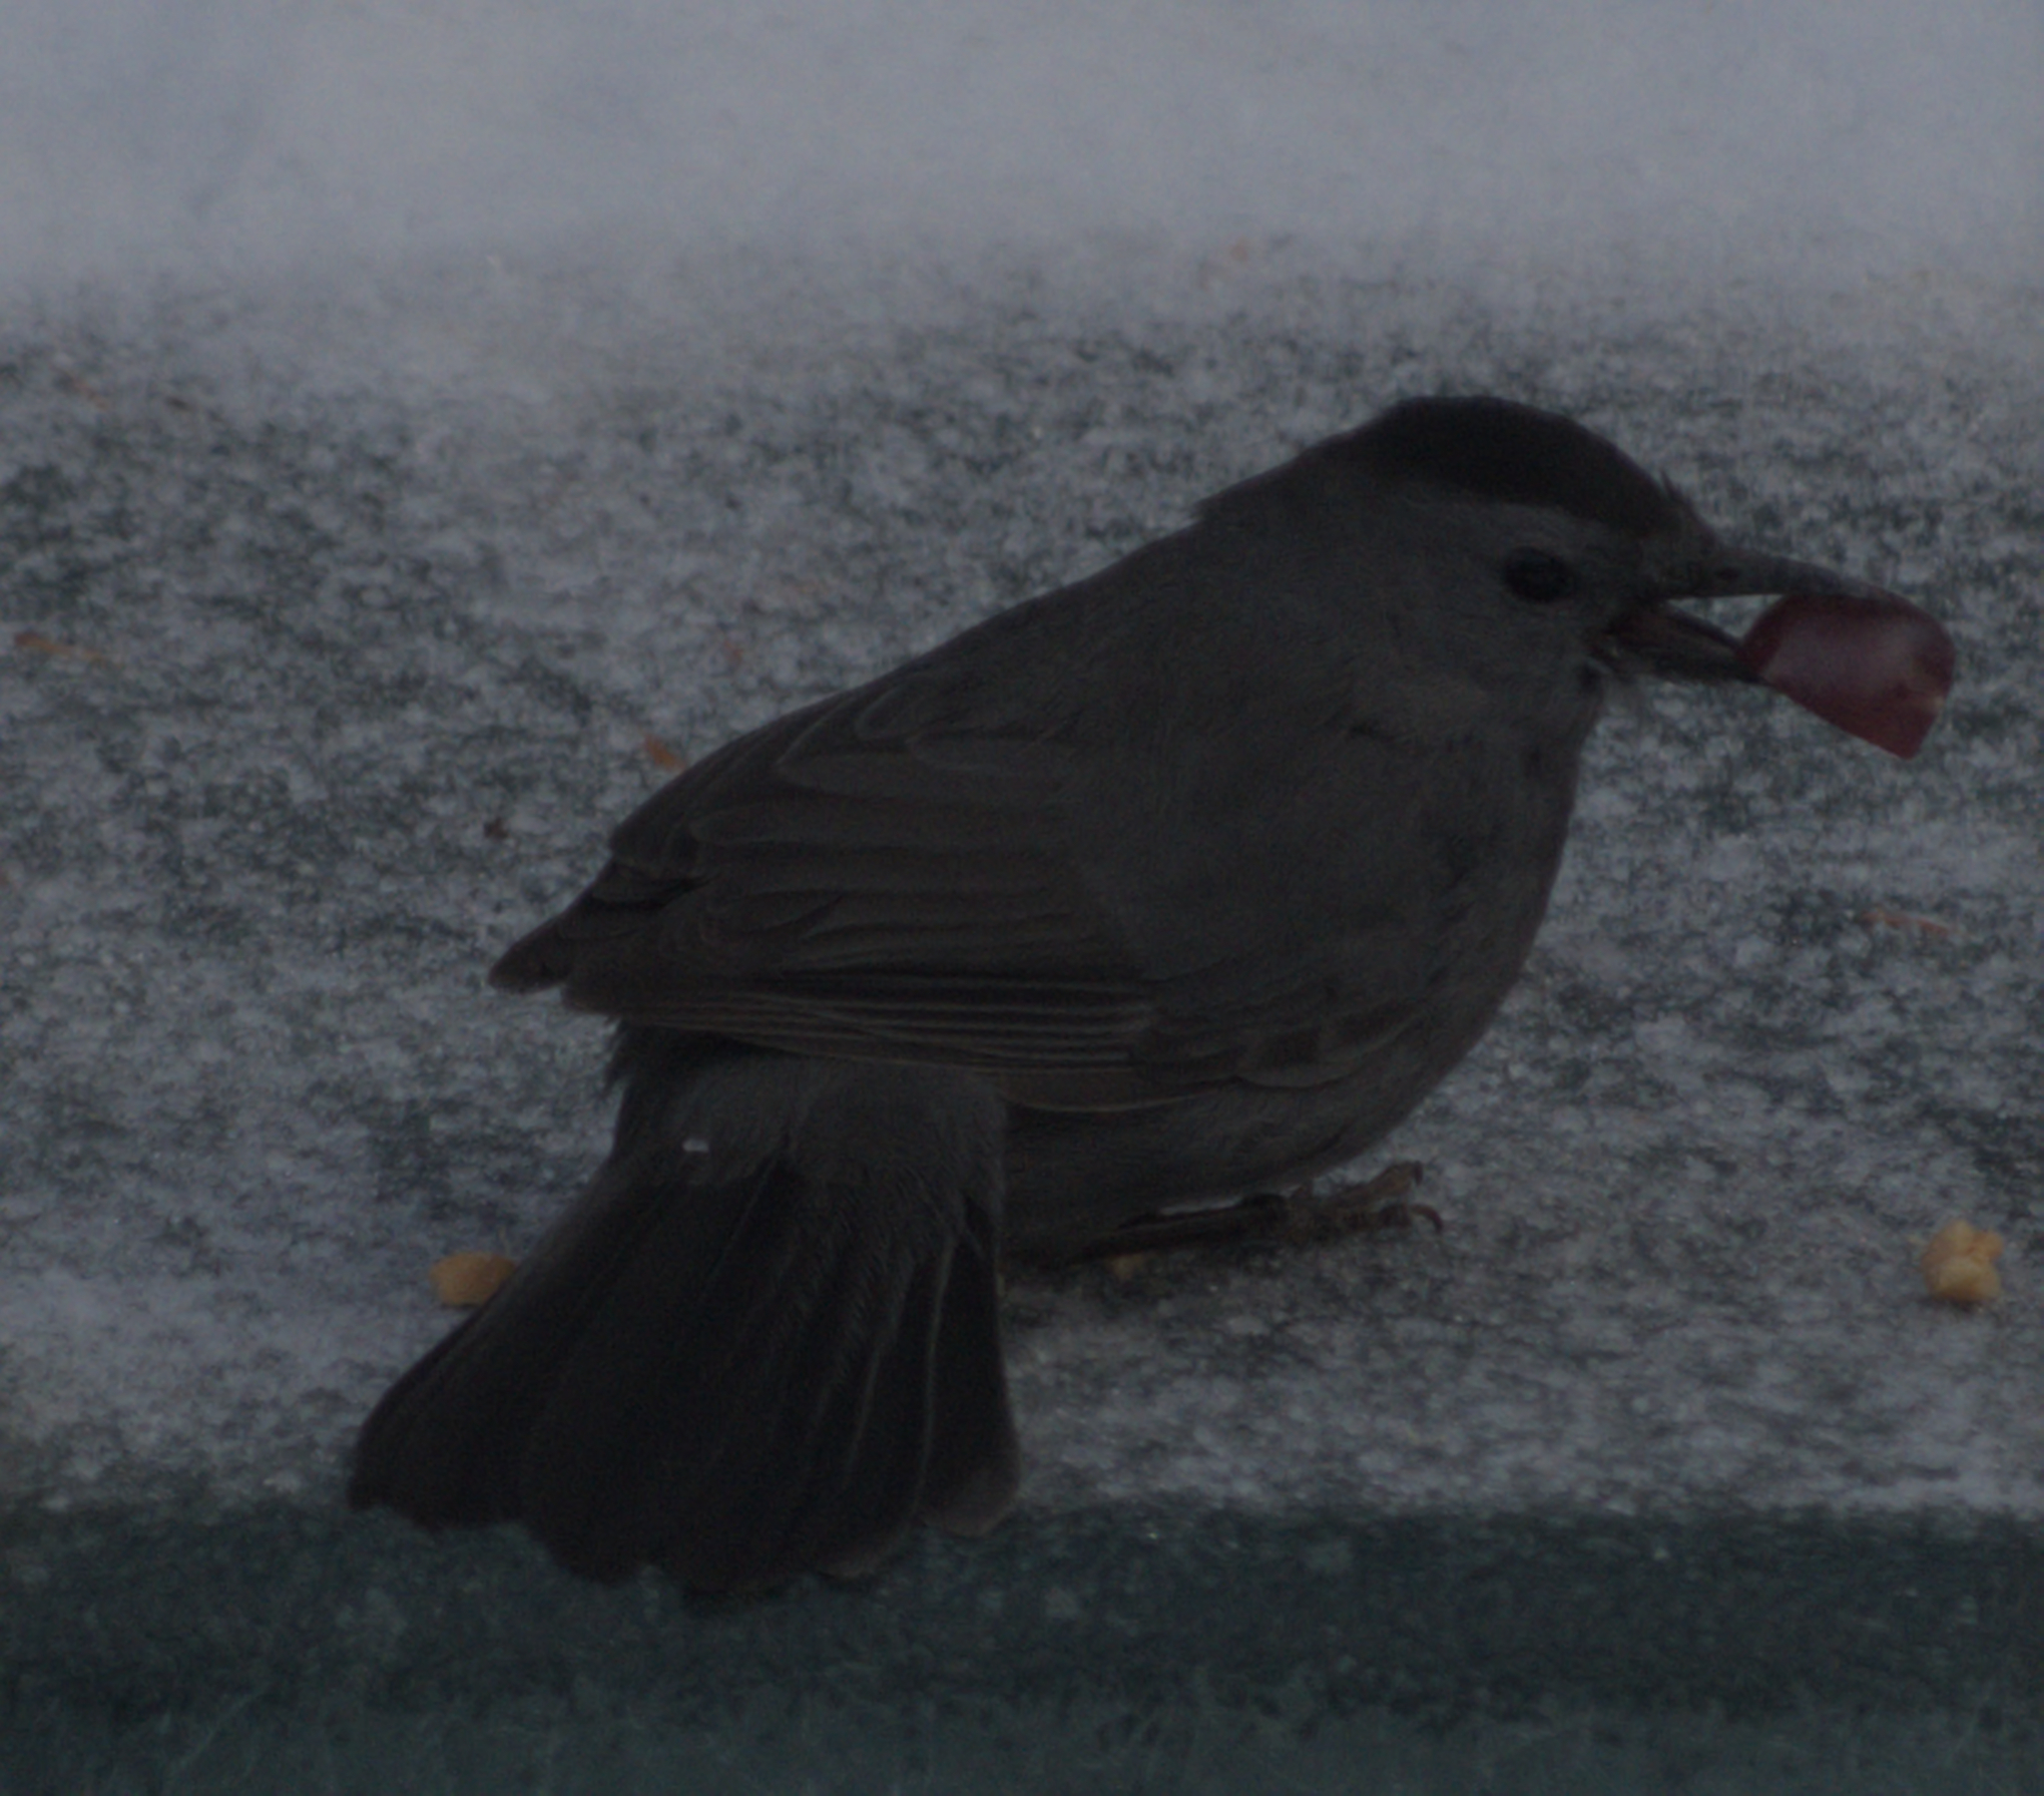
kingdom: Animalia
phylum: Chordata
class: Aves
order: Passeriformes
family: Mimidae
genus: Dumetella
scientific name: Dumetella carolinensis
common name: Gray catbird
